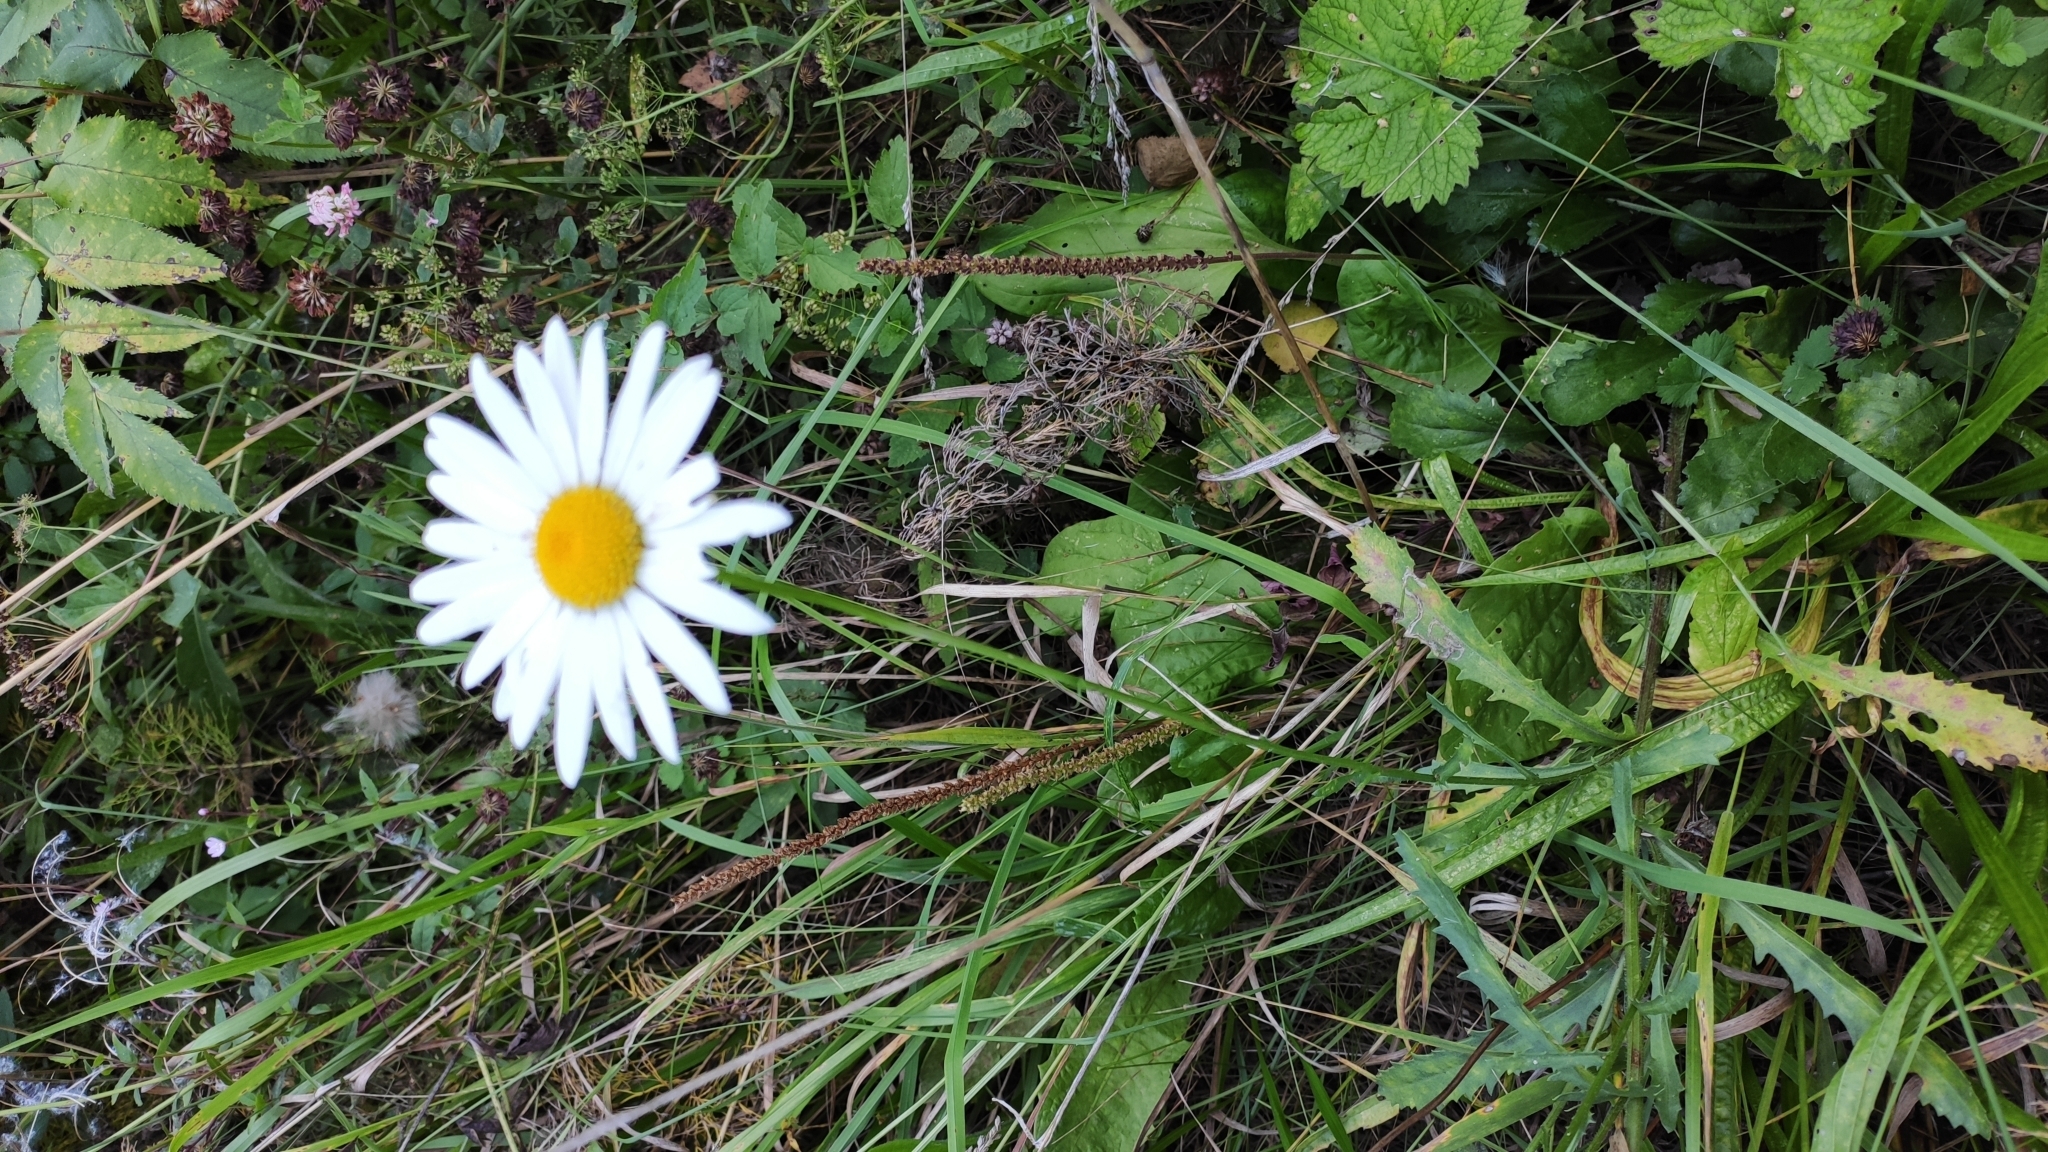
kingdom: Plantae
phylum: Tracheophyta
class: Magnoliopsida
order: Asterales
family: Asteraceae
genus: Leucanthemum
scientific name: Leucanthemum vulgare
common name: Oxeye daisy
